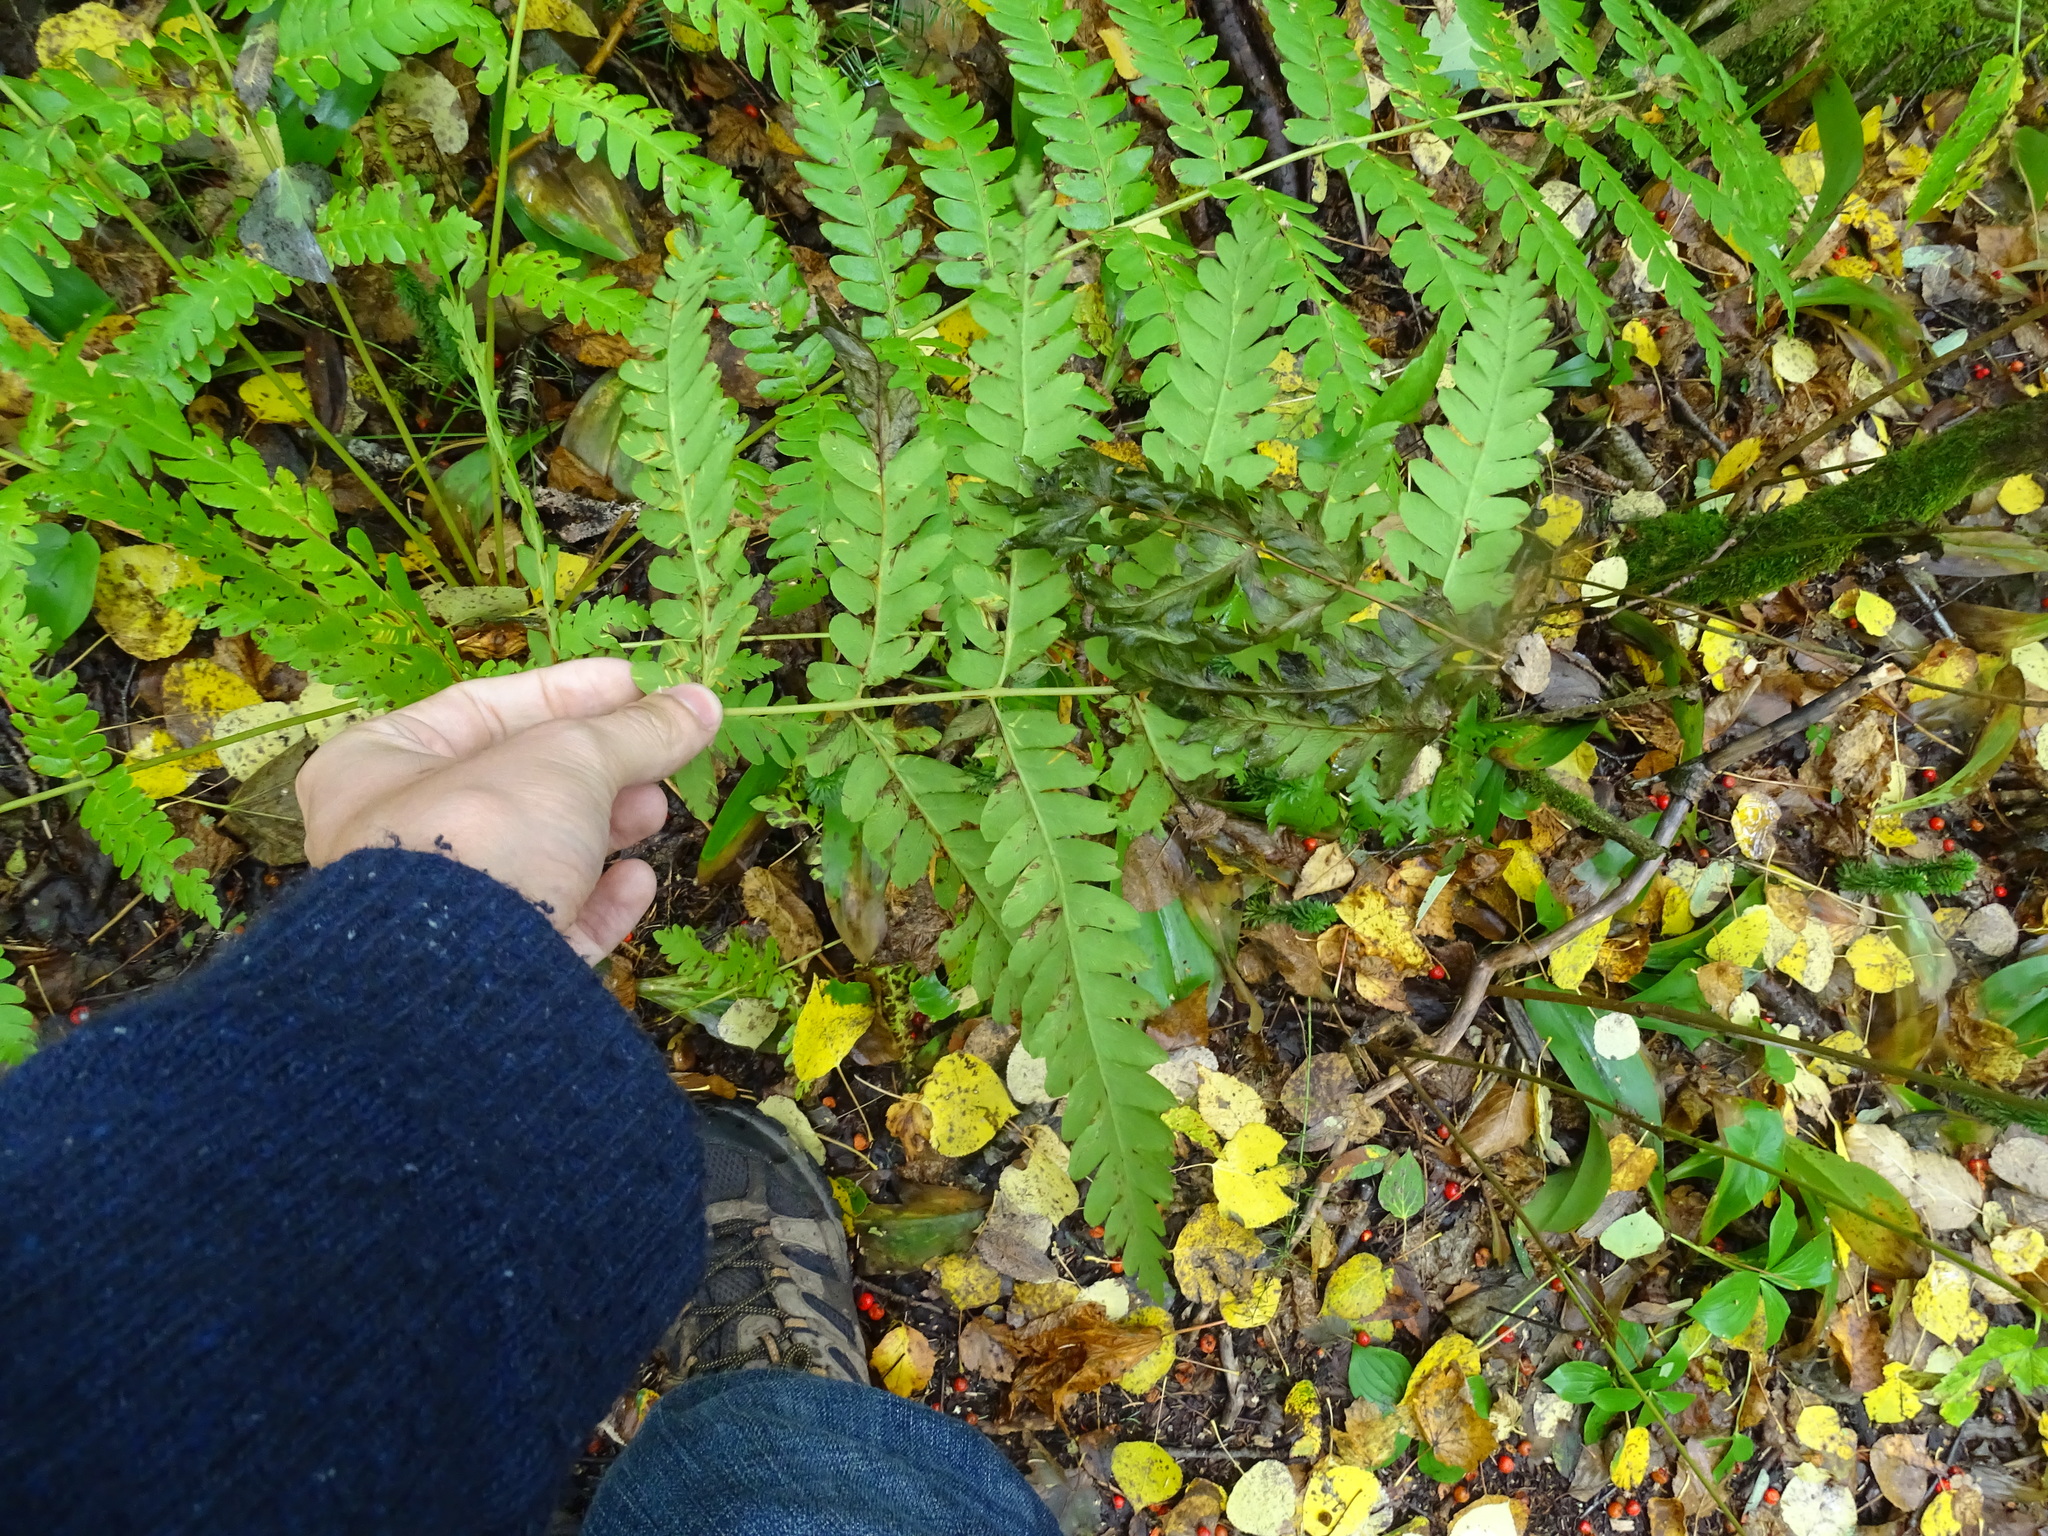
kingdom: Plantae
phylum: Tracheophyta
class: Polypodiopsida
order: Osmundales
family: Osmundaceae
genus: Claytosmunda
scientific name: Claytosmunda claytoniana
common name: Clayton's fern
